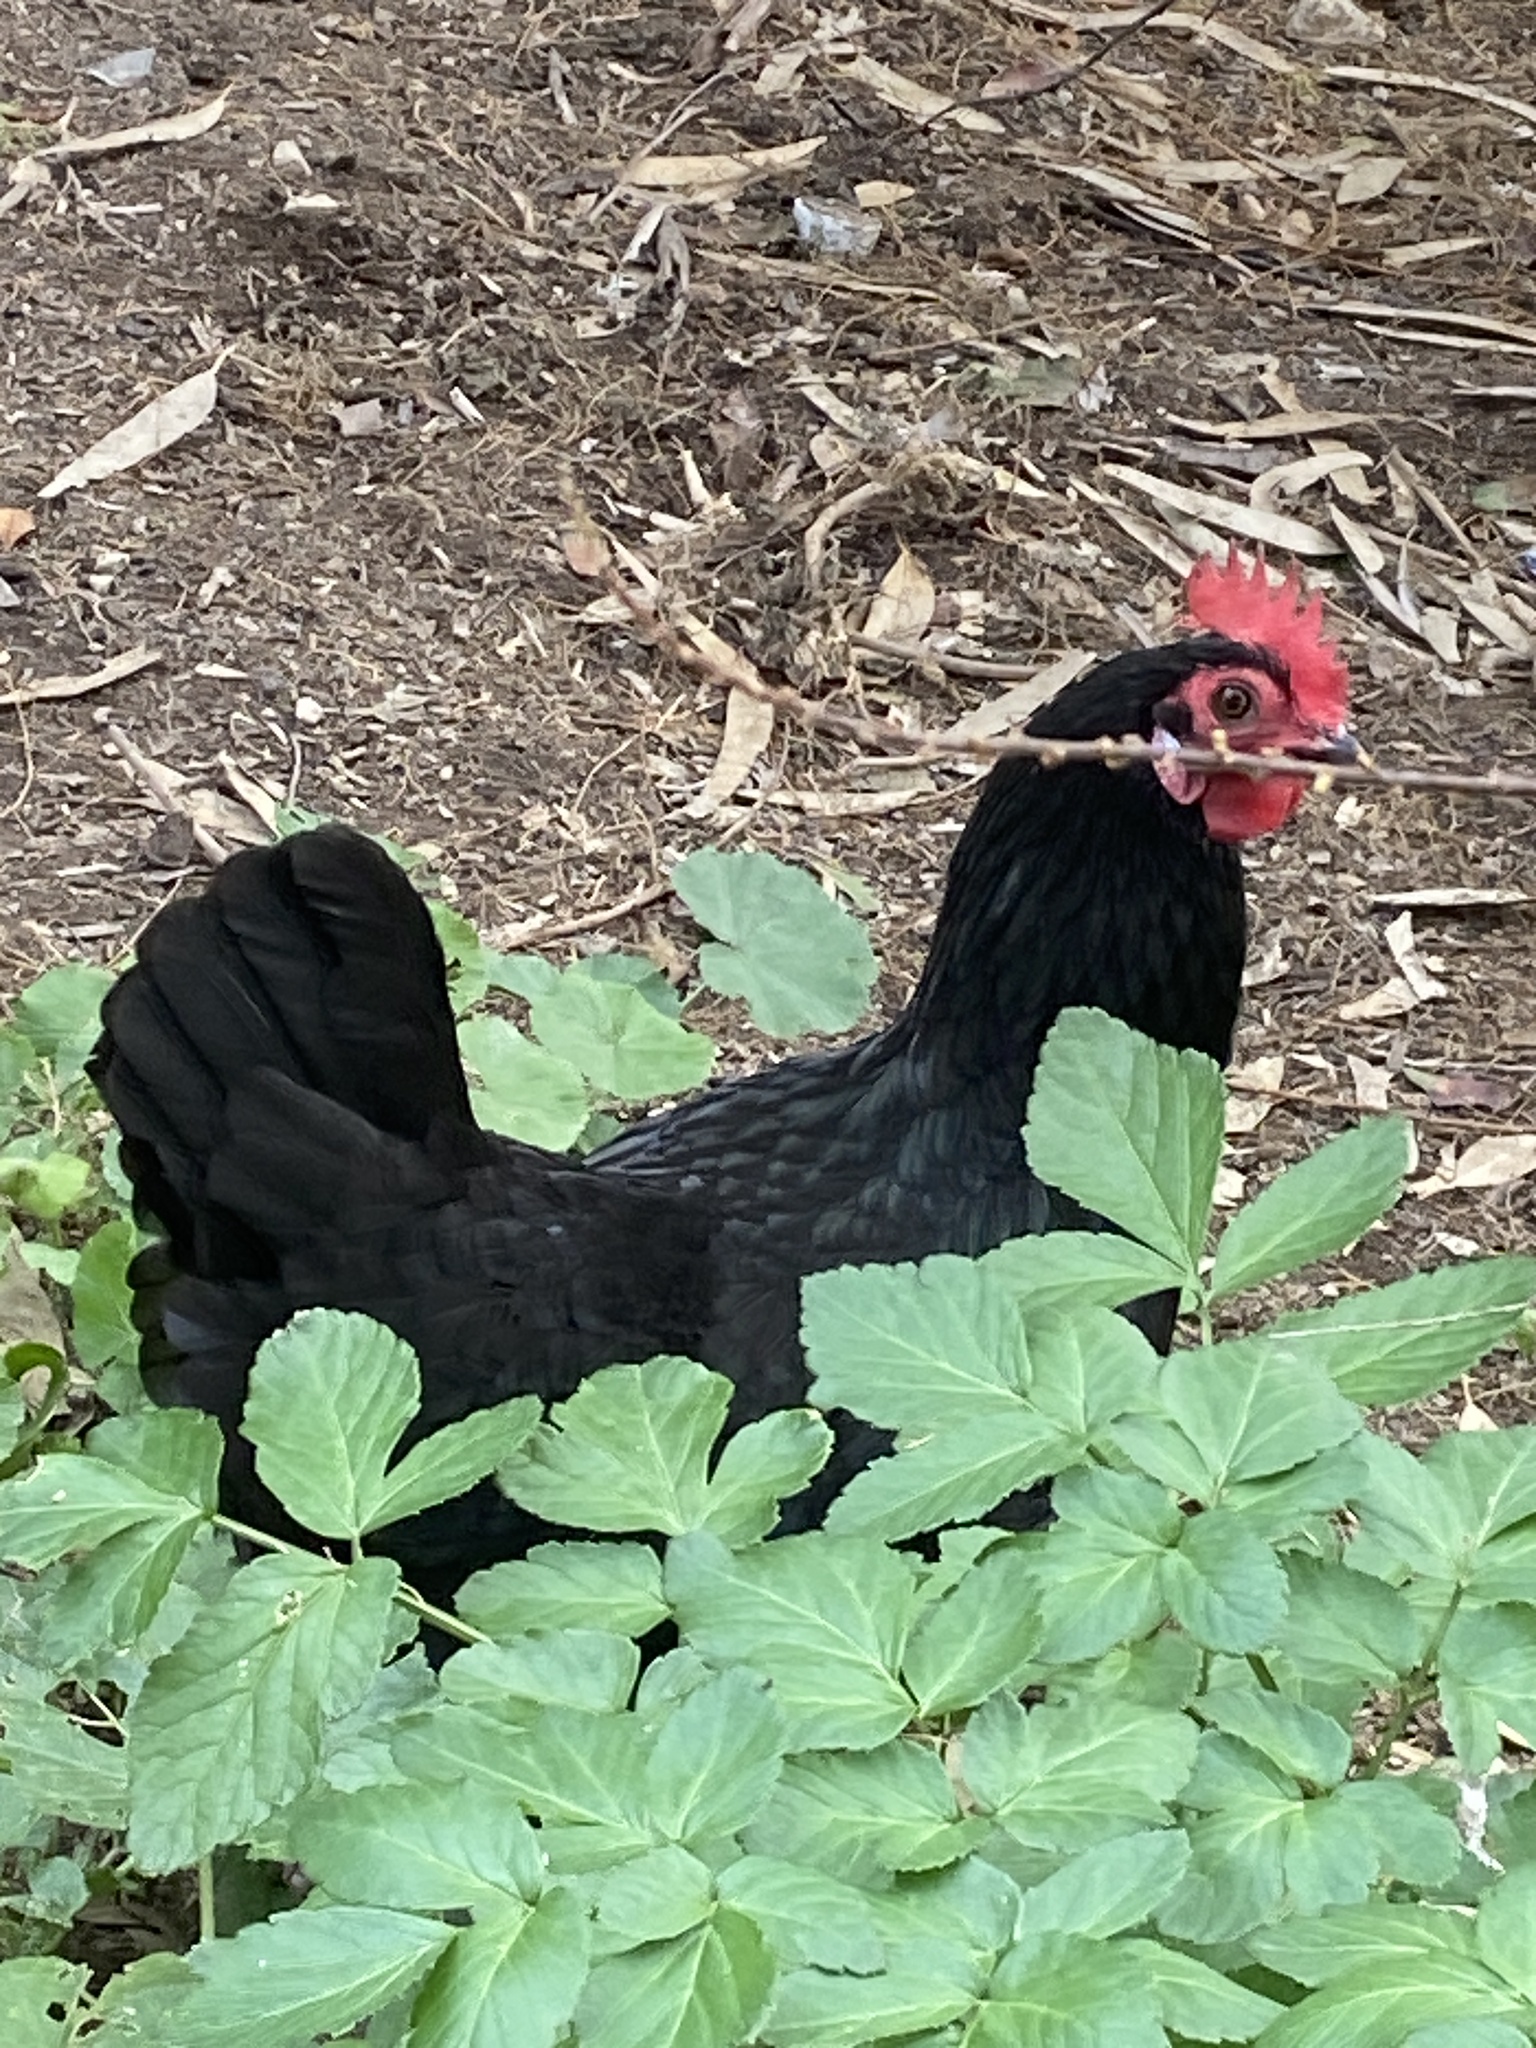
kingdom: Animalia
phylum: Chordata
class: Aves
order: Galliformes
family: Phasianidae
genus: Gallus
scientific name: Gallus gallus
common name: Red junglefowl
